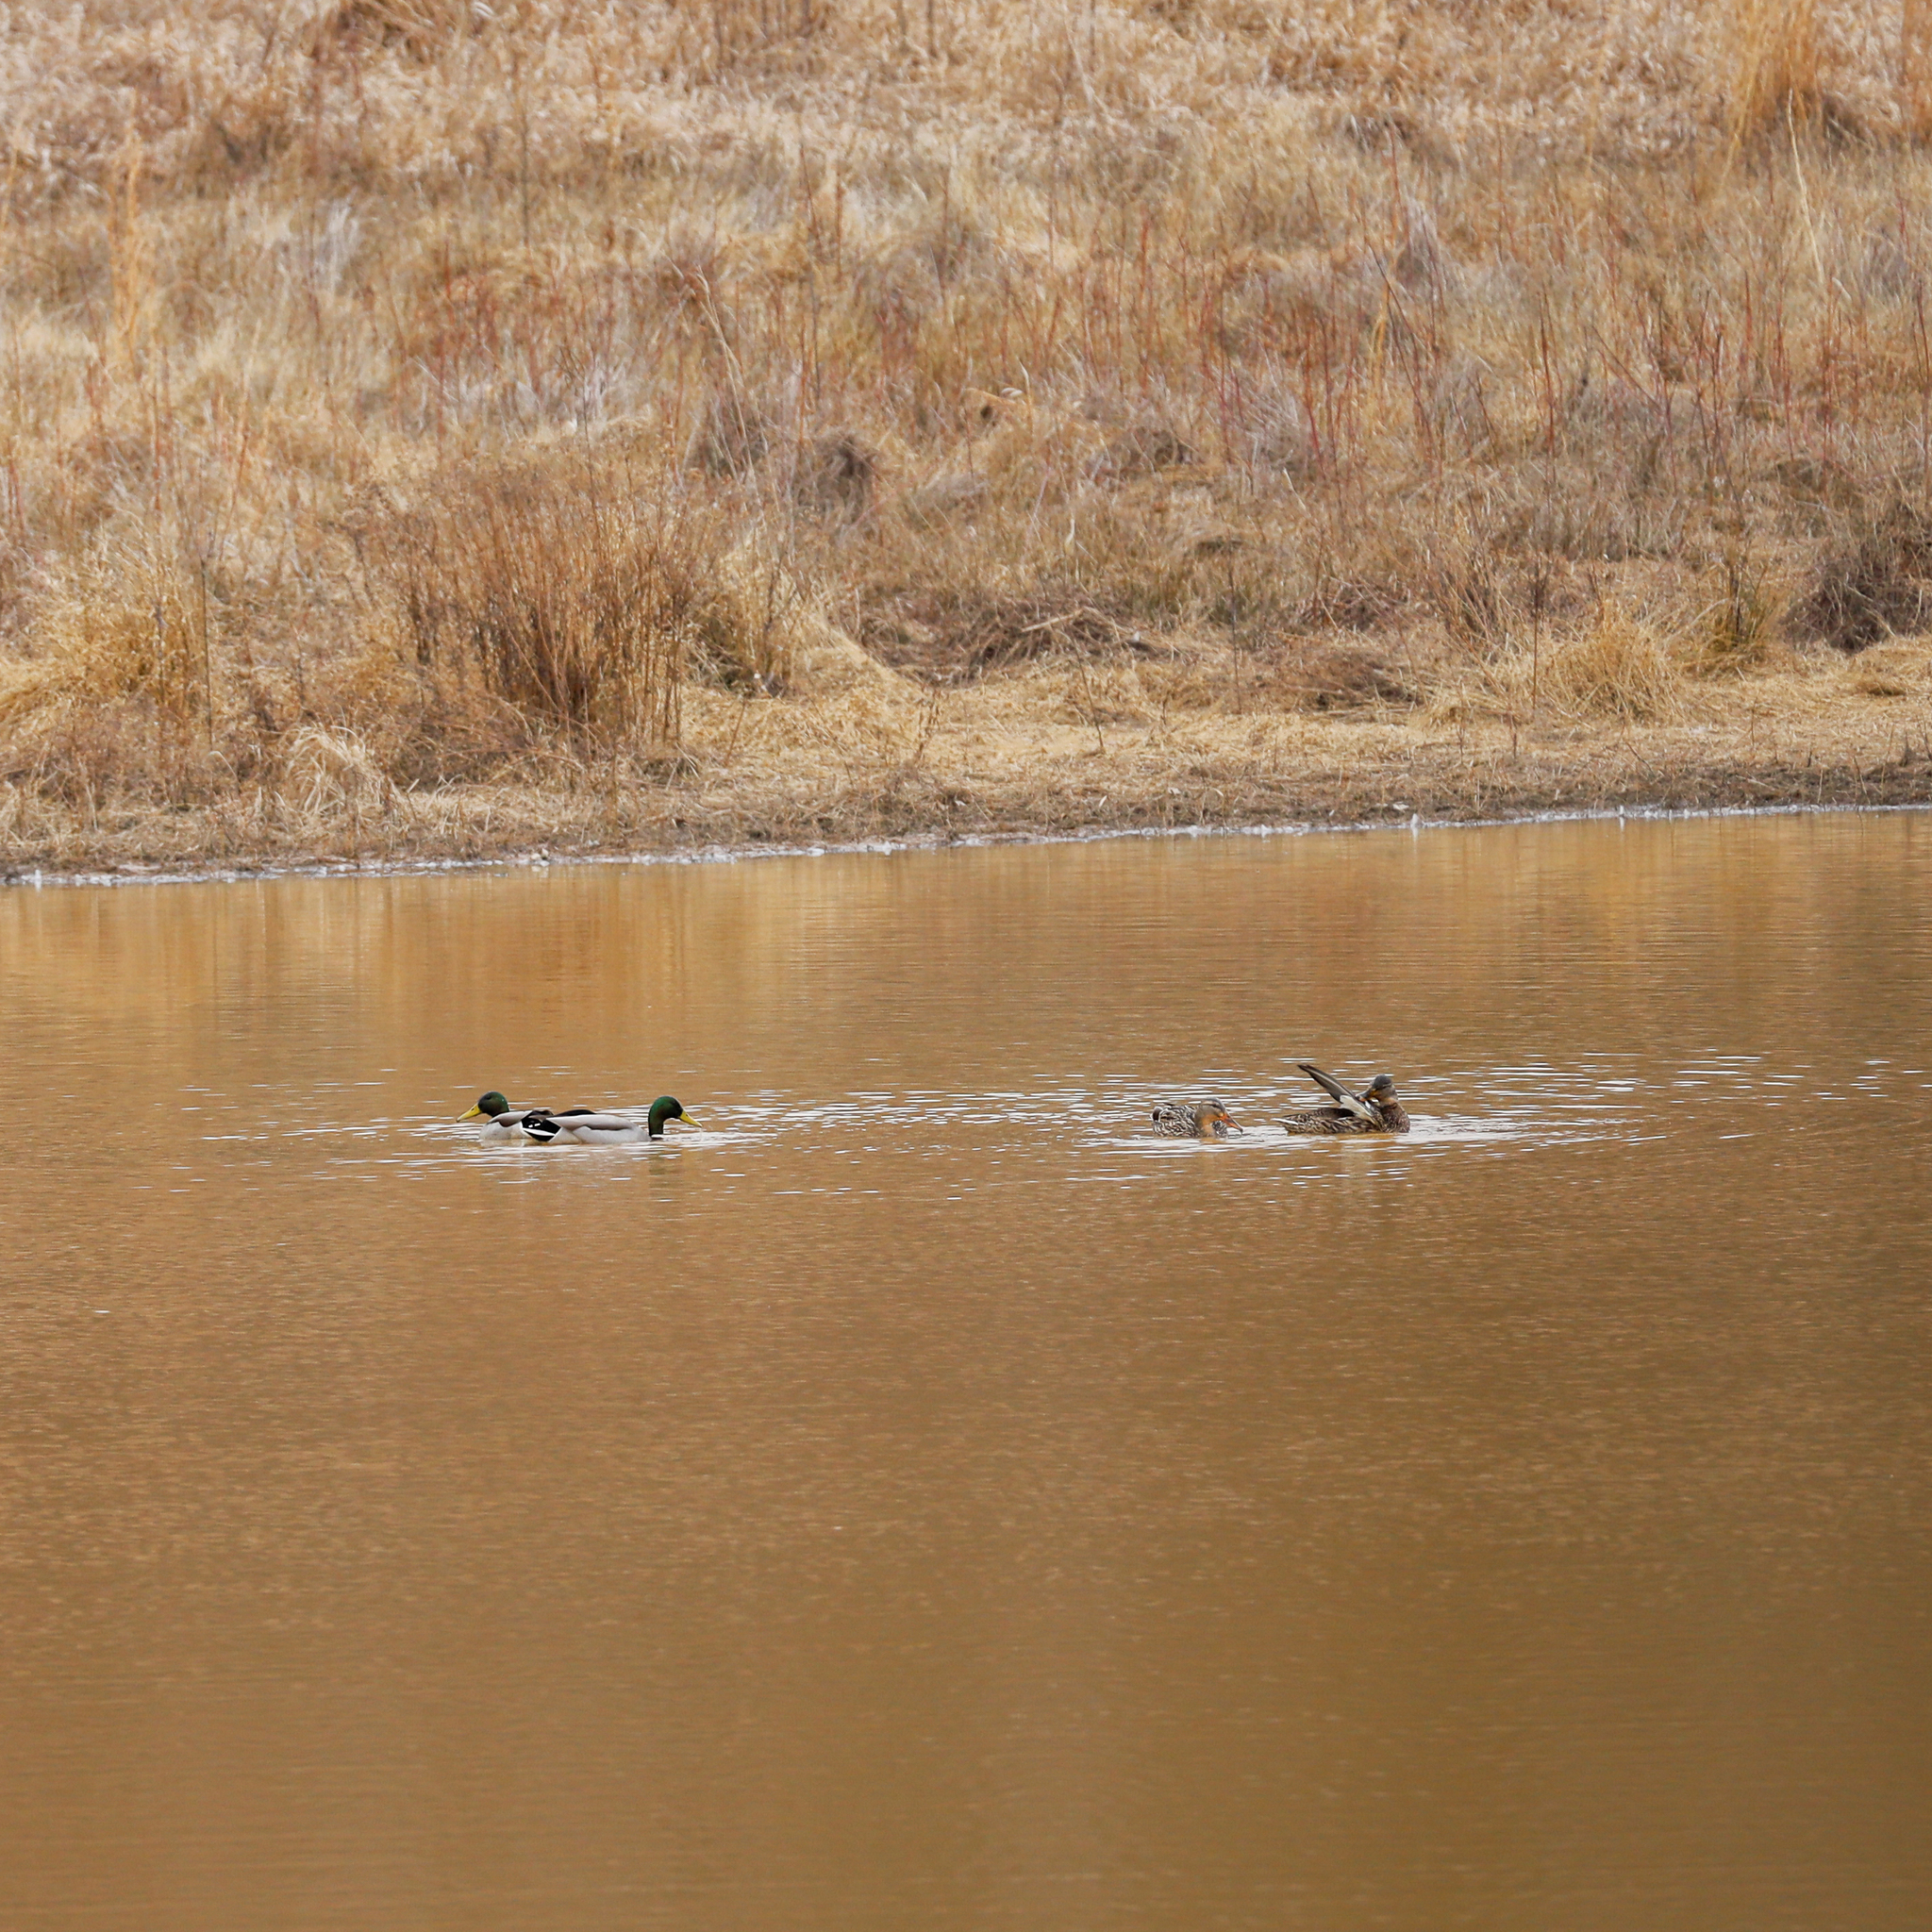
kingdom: Animalia
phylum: Chordata
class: Aves
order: Anseriformes
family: Anatidae
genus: Anas
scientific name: Anas platyrhynchos
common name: Mallard
